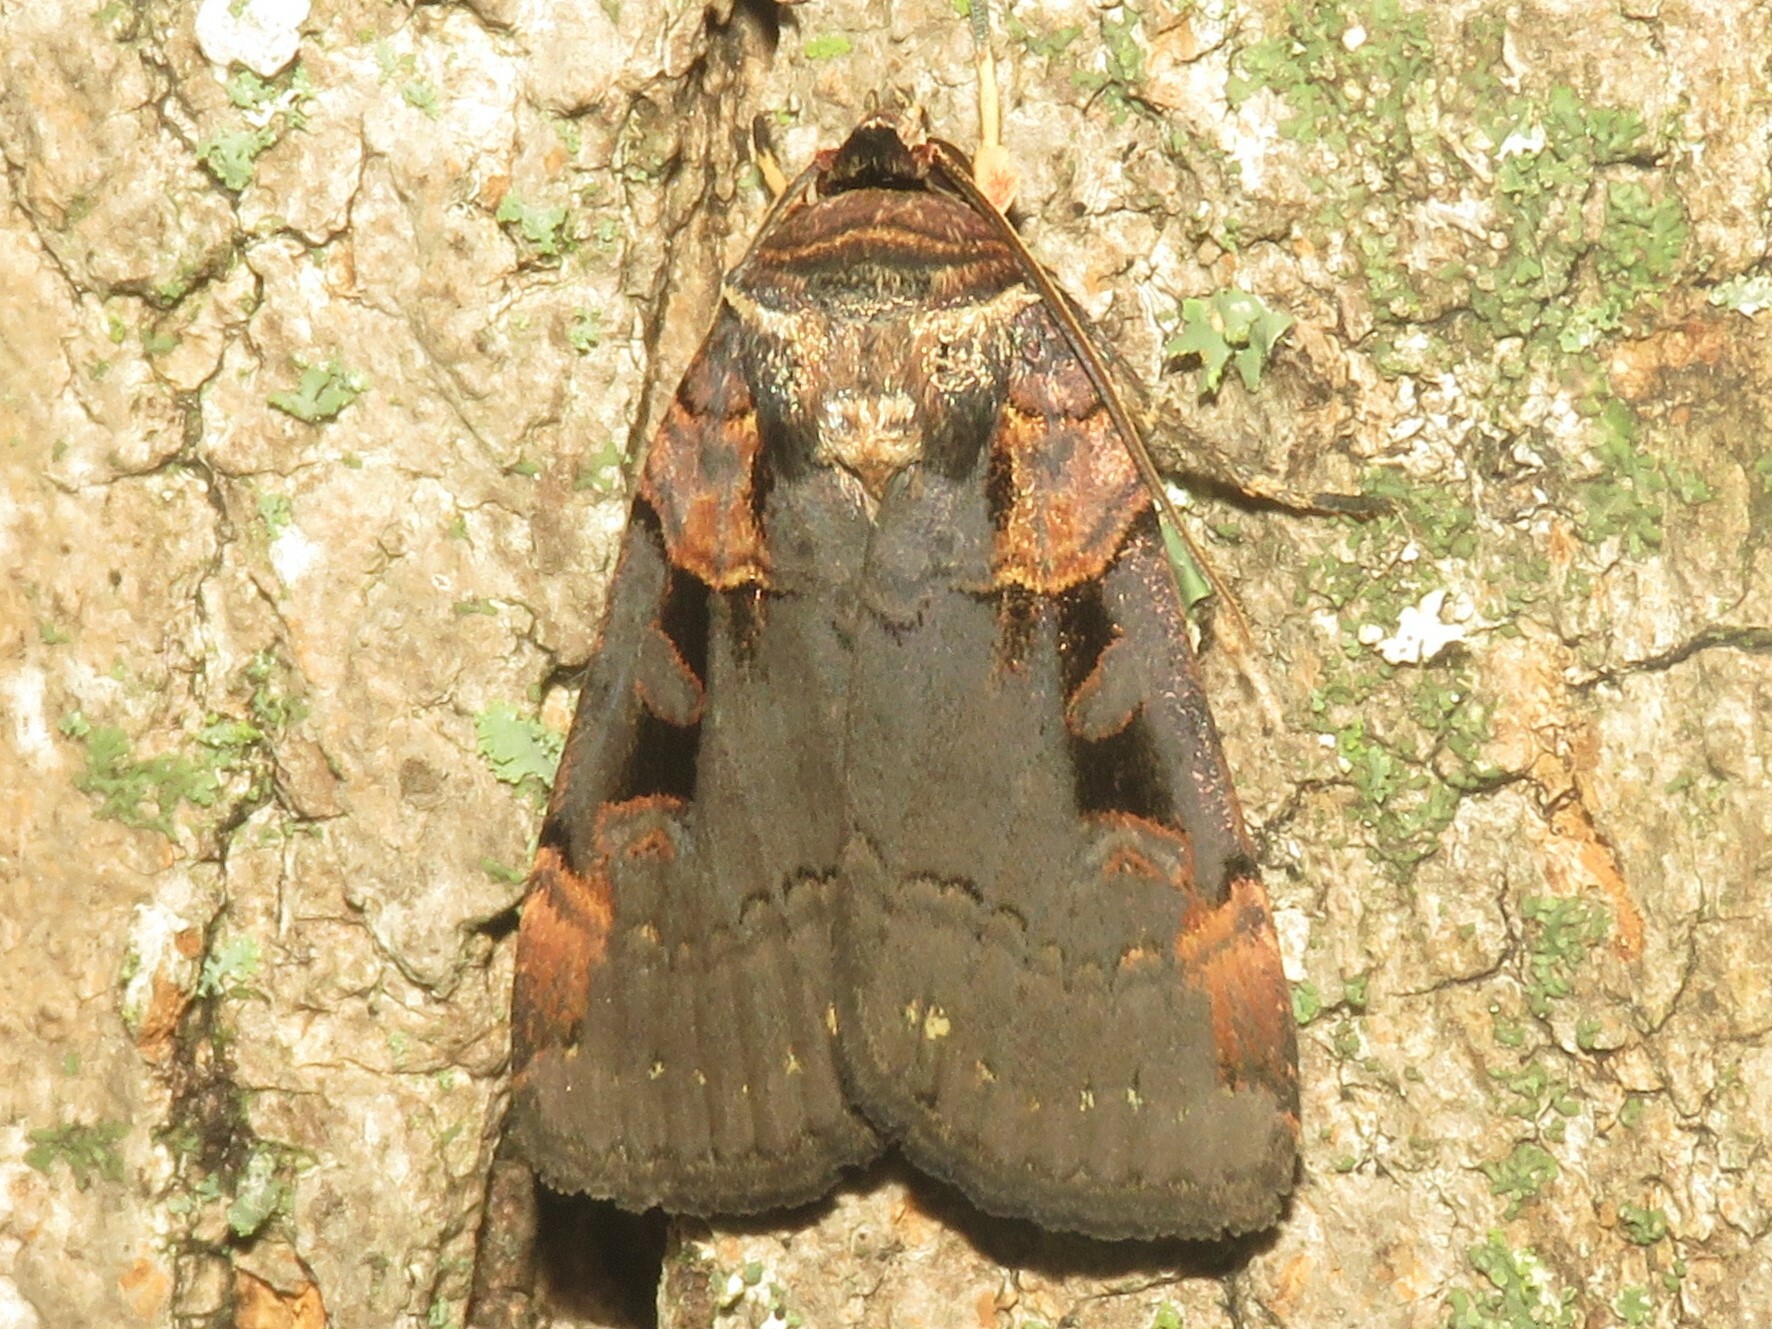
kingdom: Animalia
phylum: Arthropoda
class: Insecta
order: Lepidoptera
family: Noctuidae
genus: Pseudohermonassa
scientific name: Pseudohermonassa bicarnea
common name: Pink spotted dart
